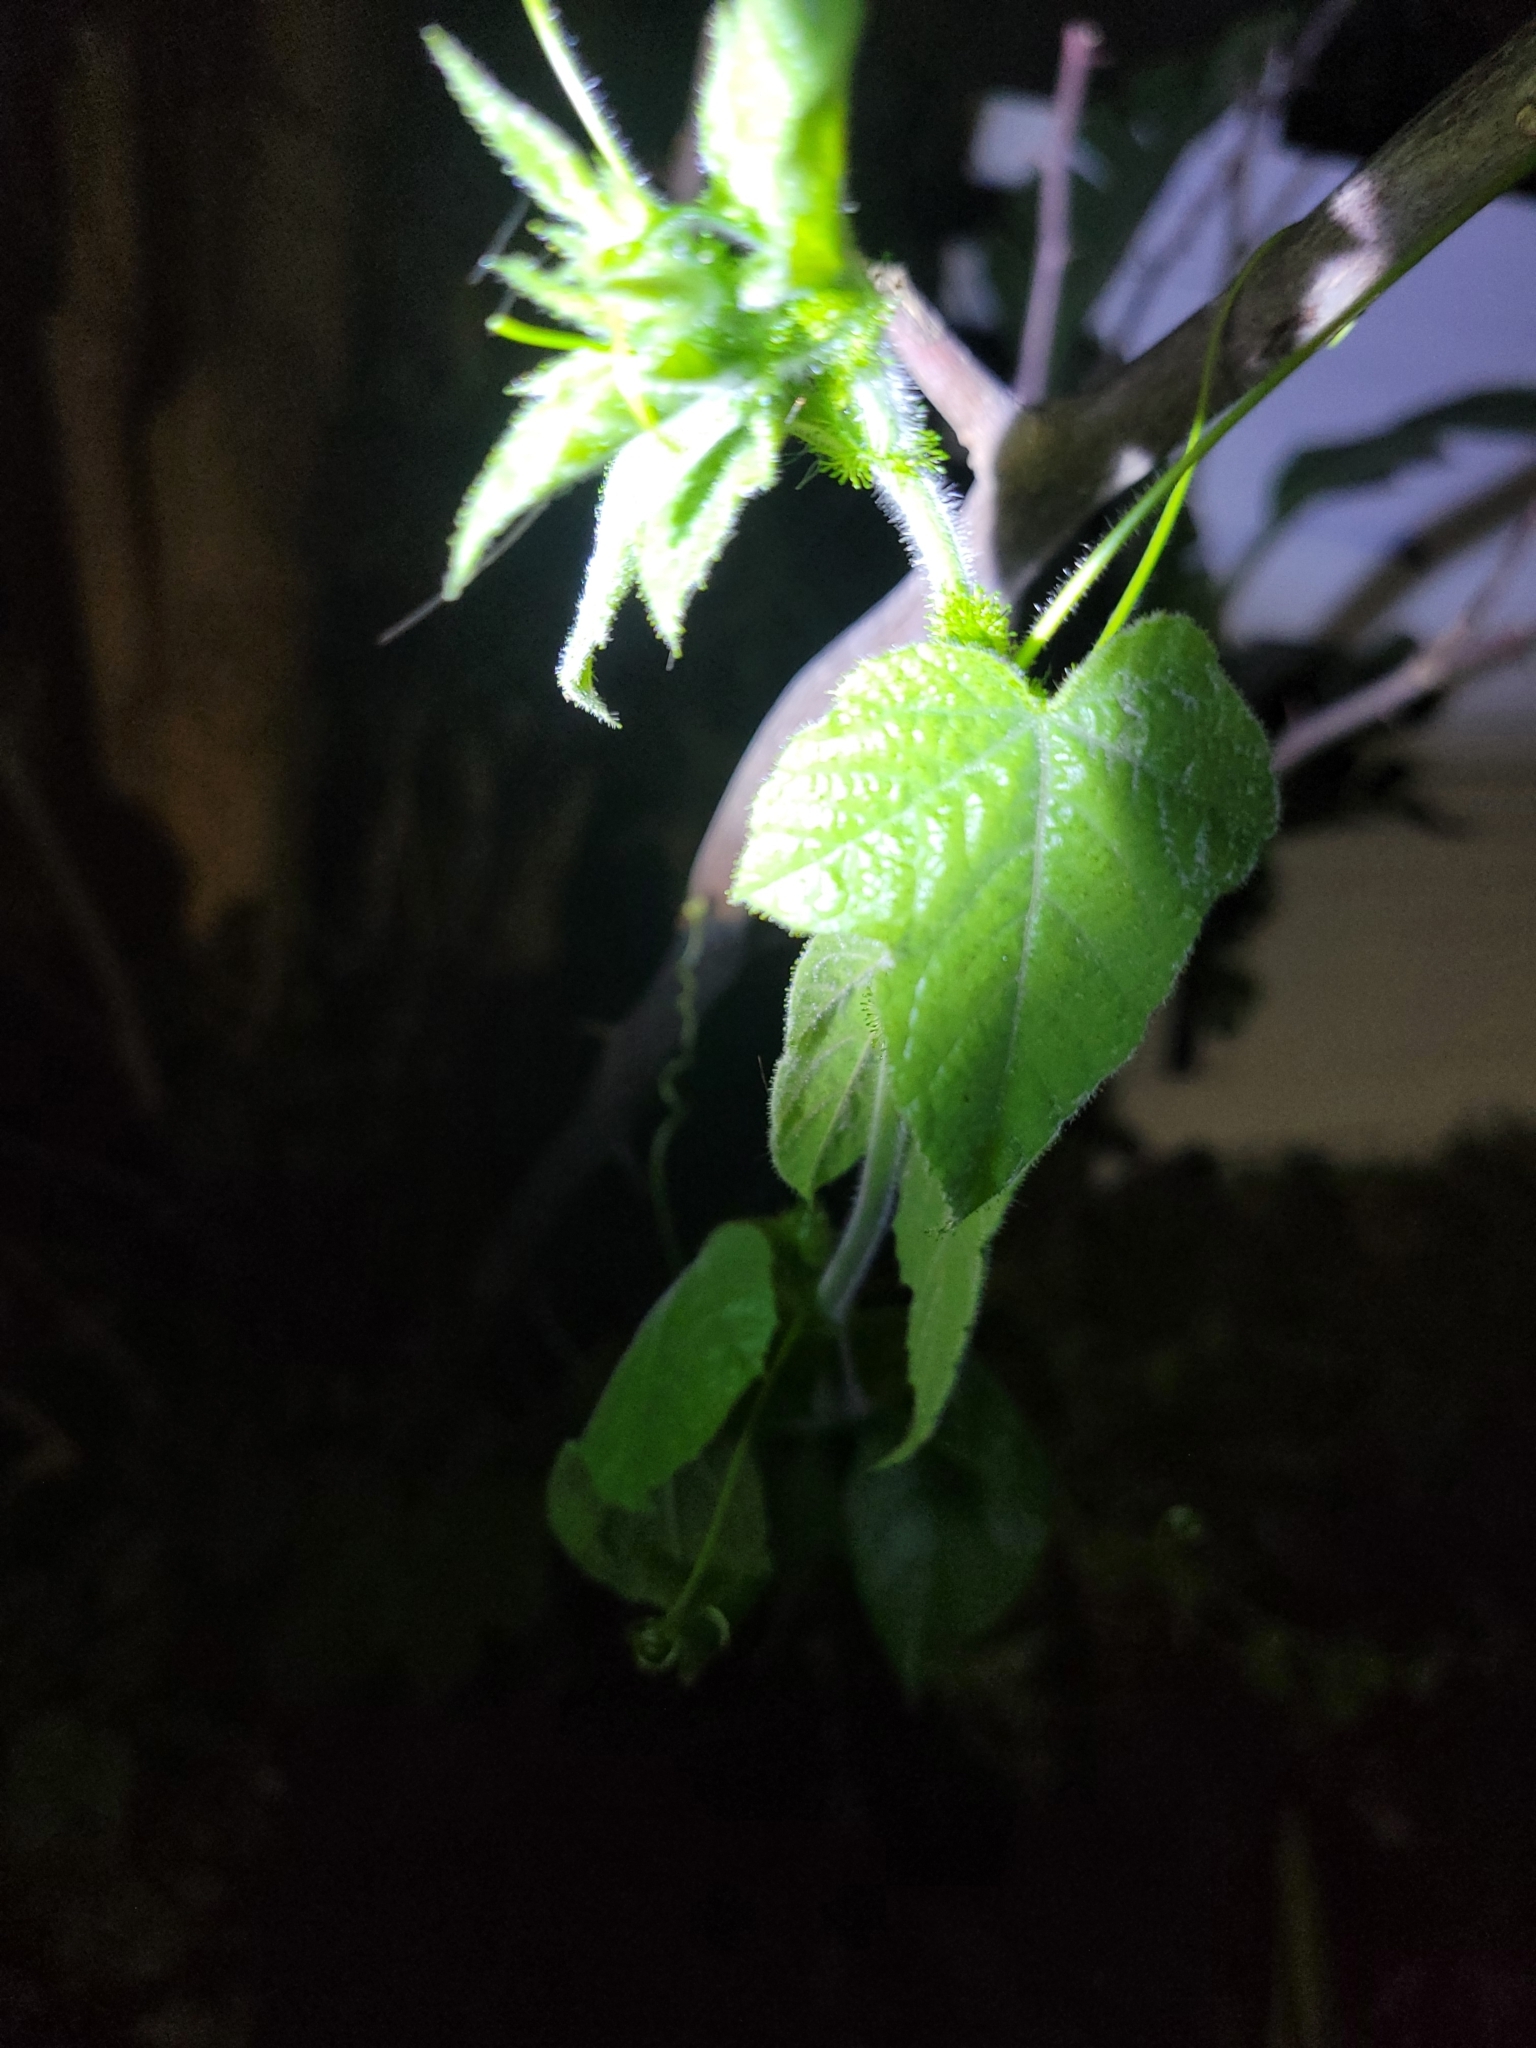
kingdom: Plantae
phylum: Tracheophyta
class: Magnoliopsida
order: Malpighiales
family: Passifloraceae
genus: Passiflora
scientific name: Passiflora vesicaria
